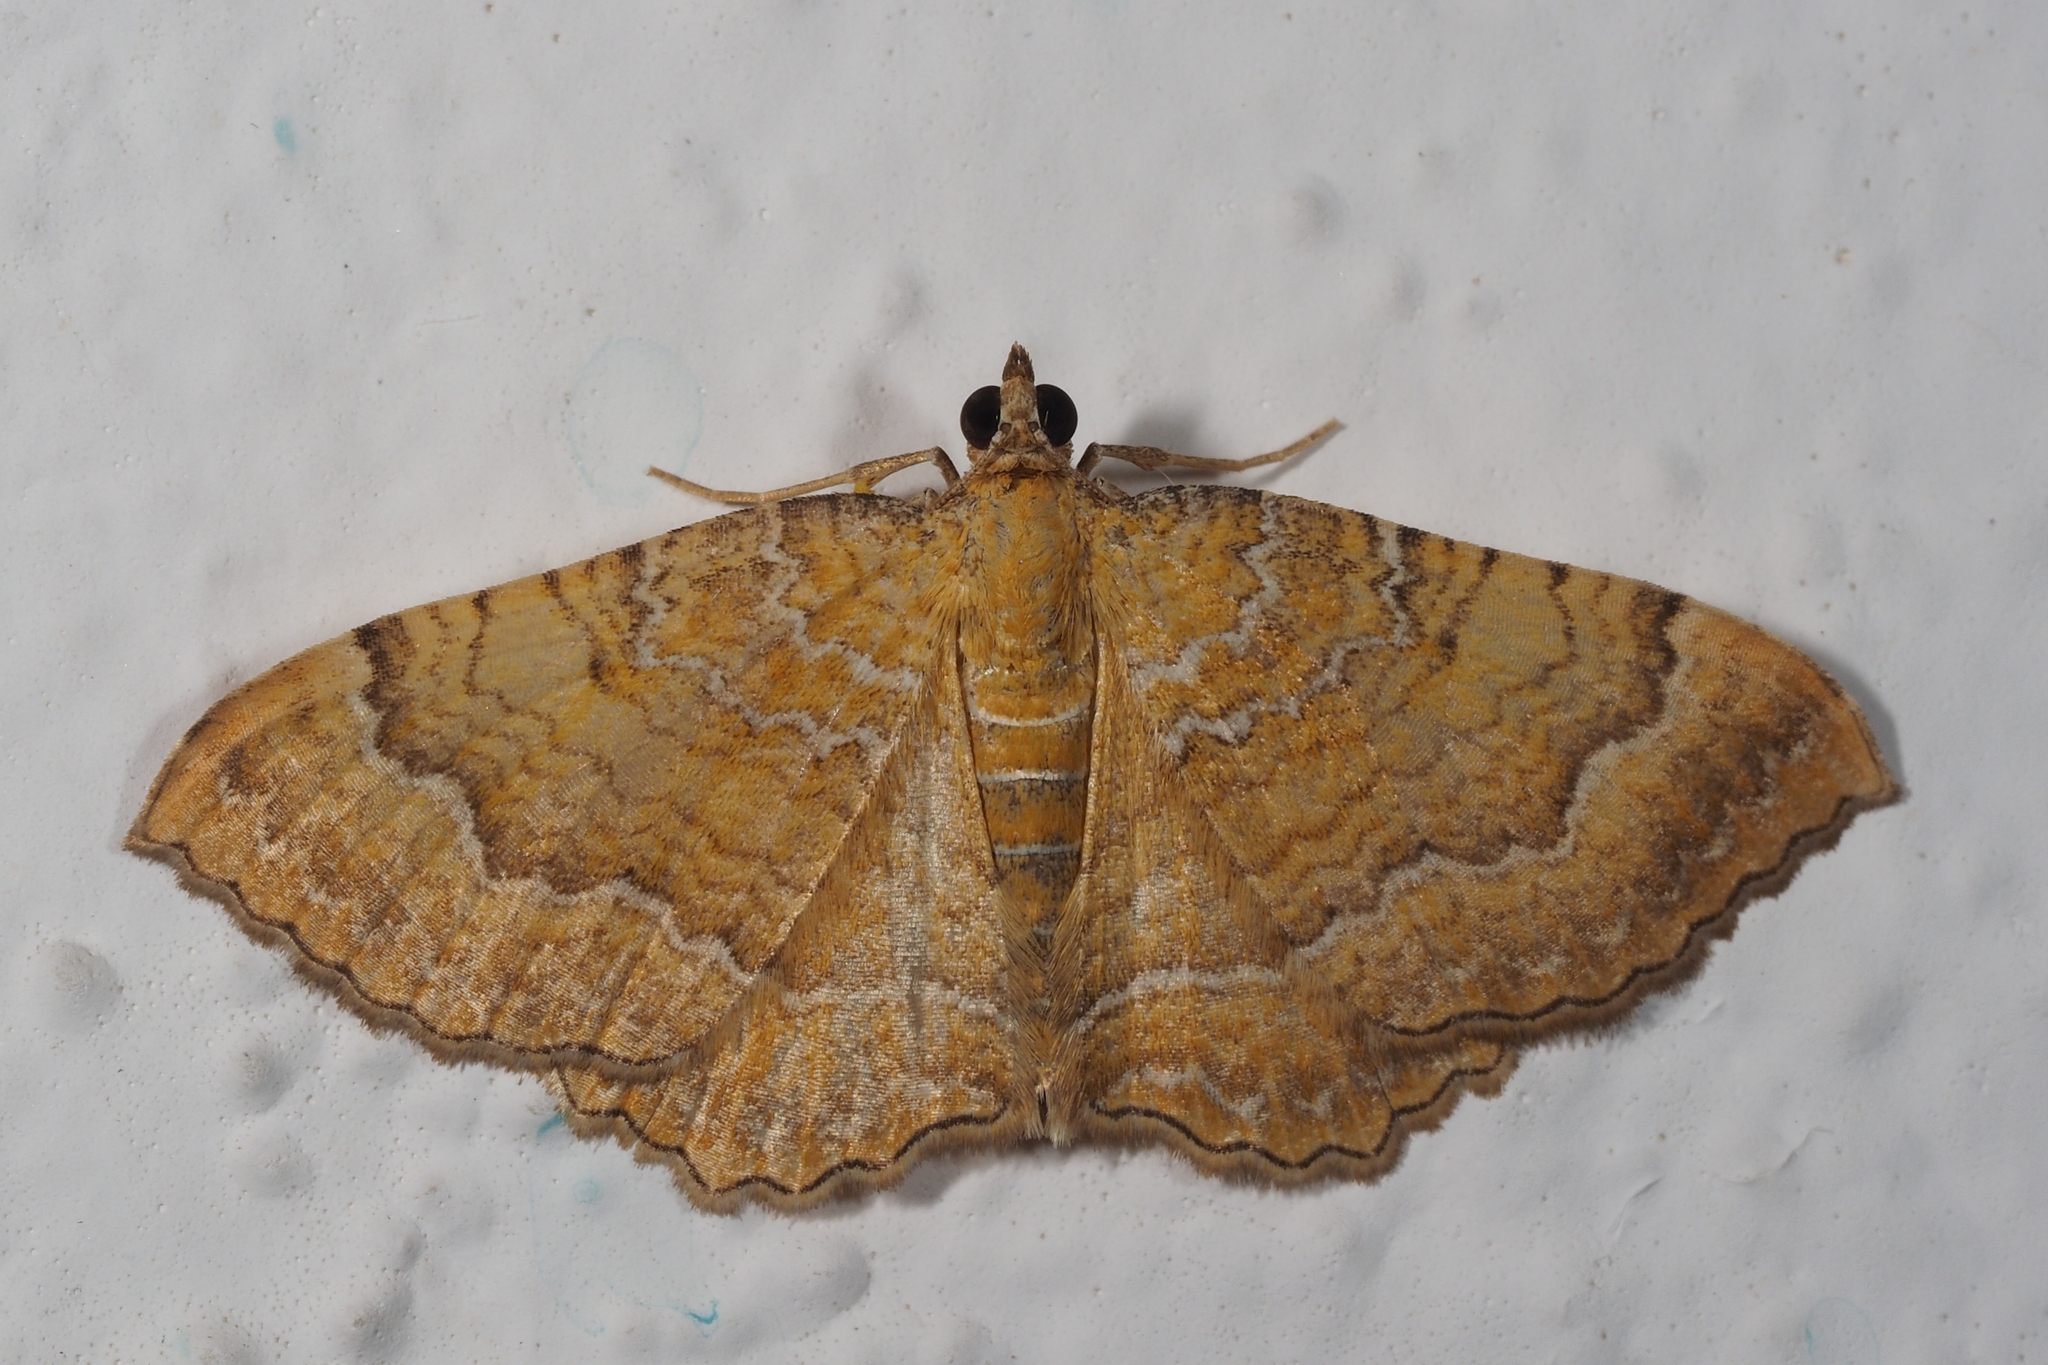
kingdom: Animalia
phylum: Arthropoda
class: Insecta
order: Lepidoptera
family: Geometridae
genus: Camptogramma
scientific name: Camptogramma bilineata
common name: Yellow shell
